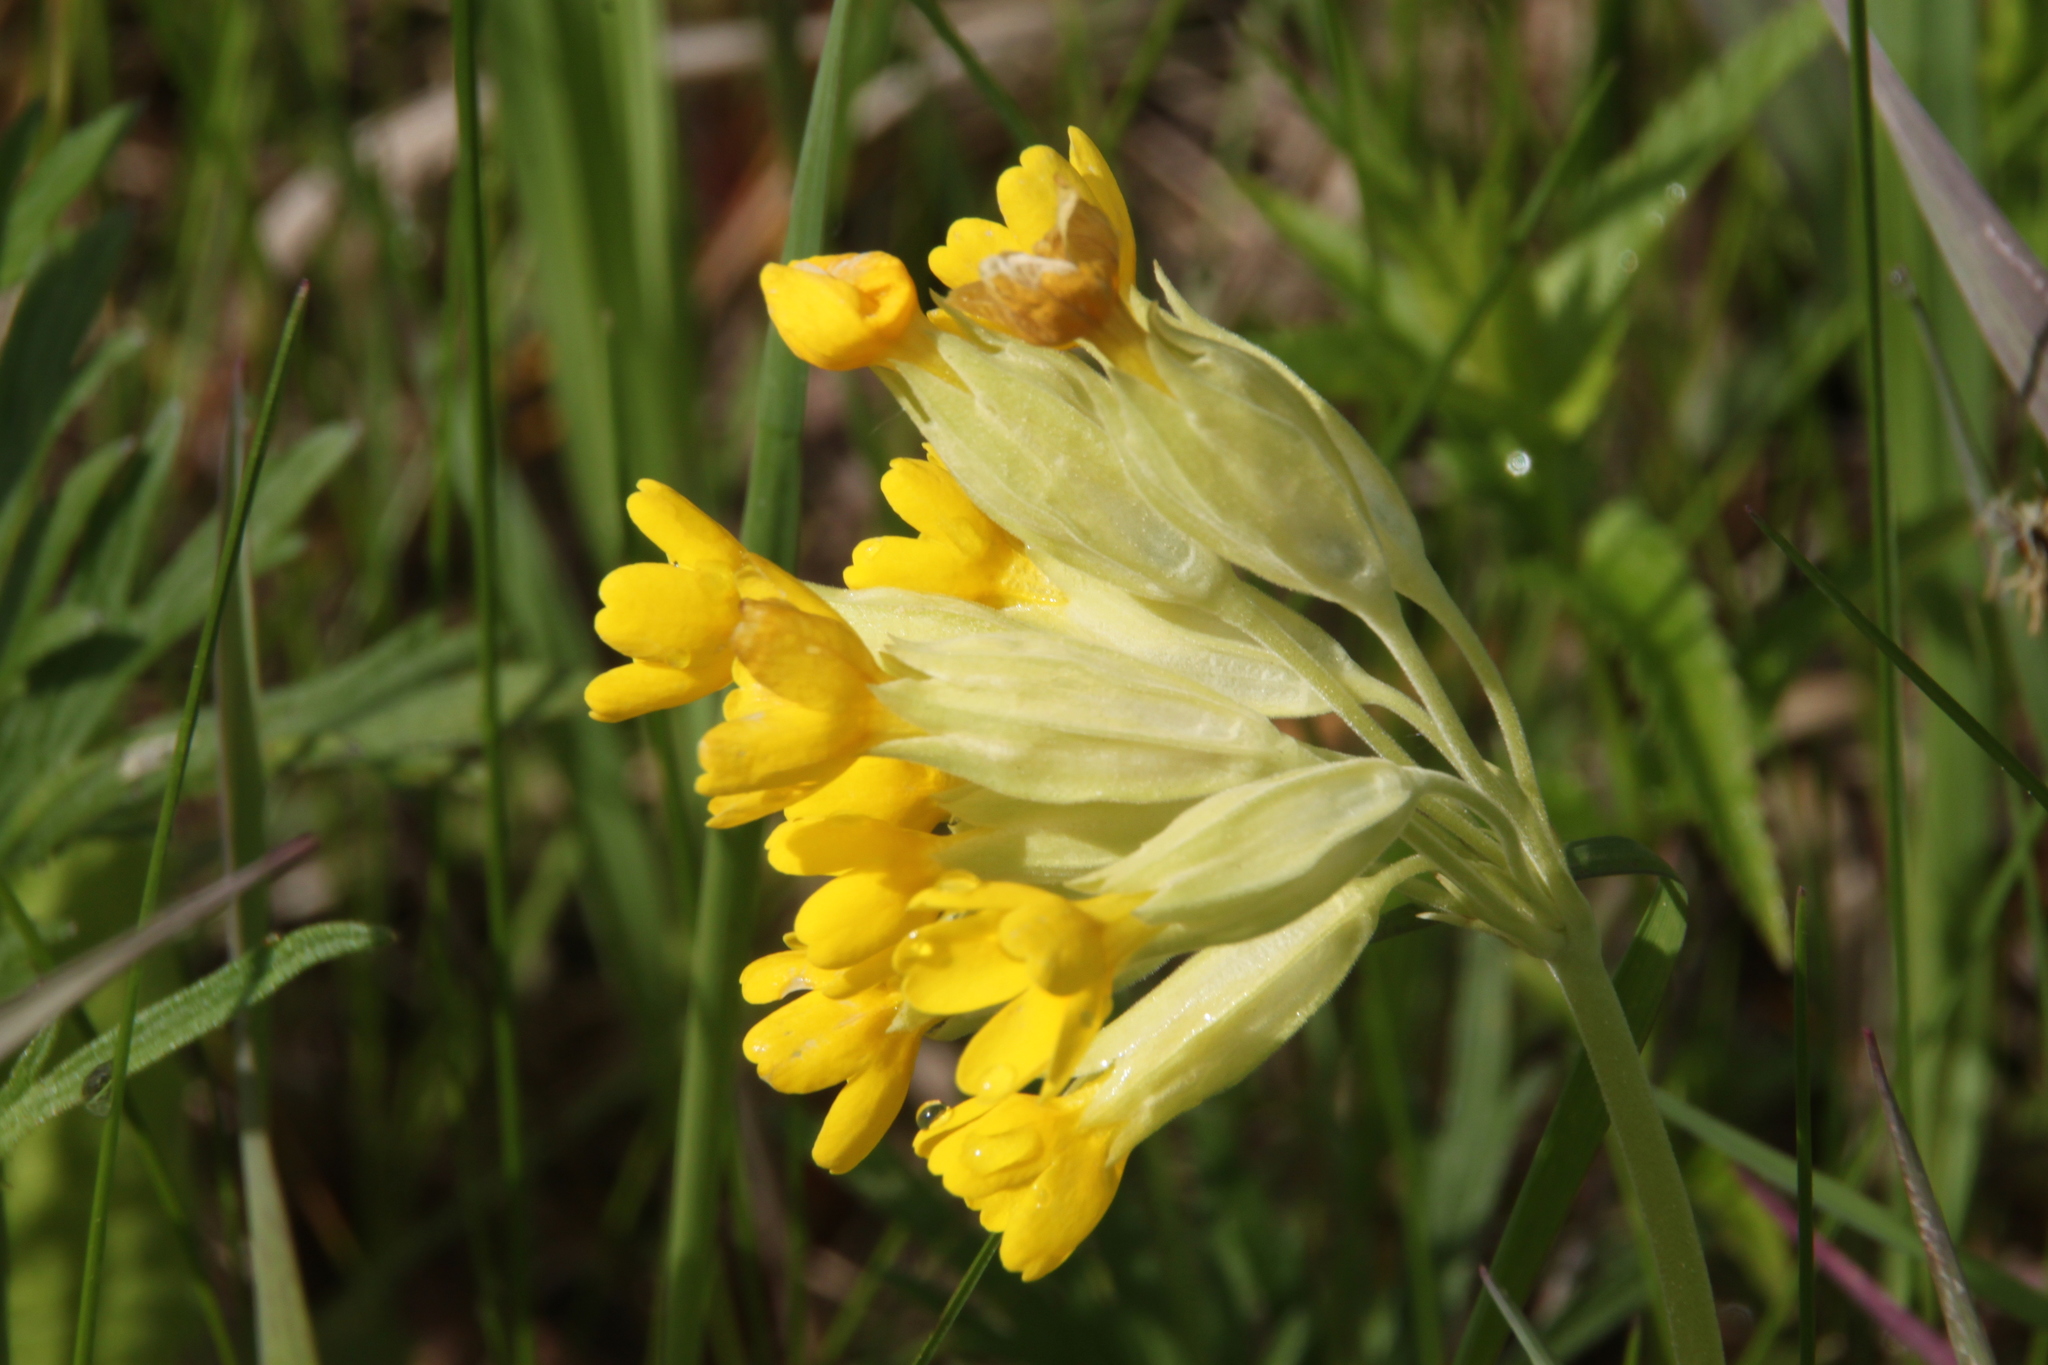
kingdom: Plantae
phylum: Tracheophyta
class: Magnoliopsida
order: Ericales
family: Primulaceae
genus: Primula
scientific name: Primula veris
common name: Cowslip
